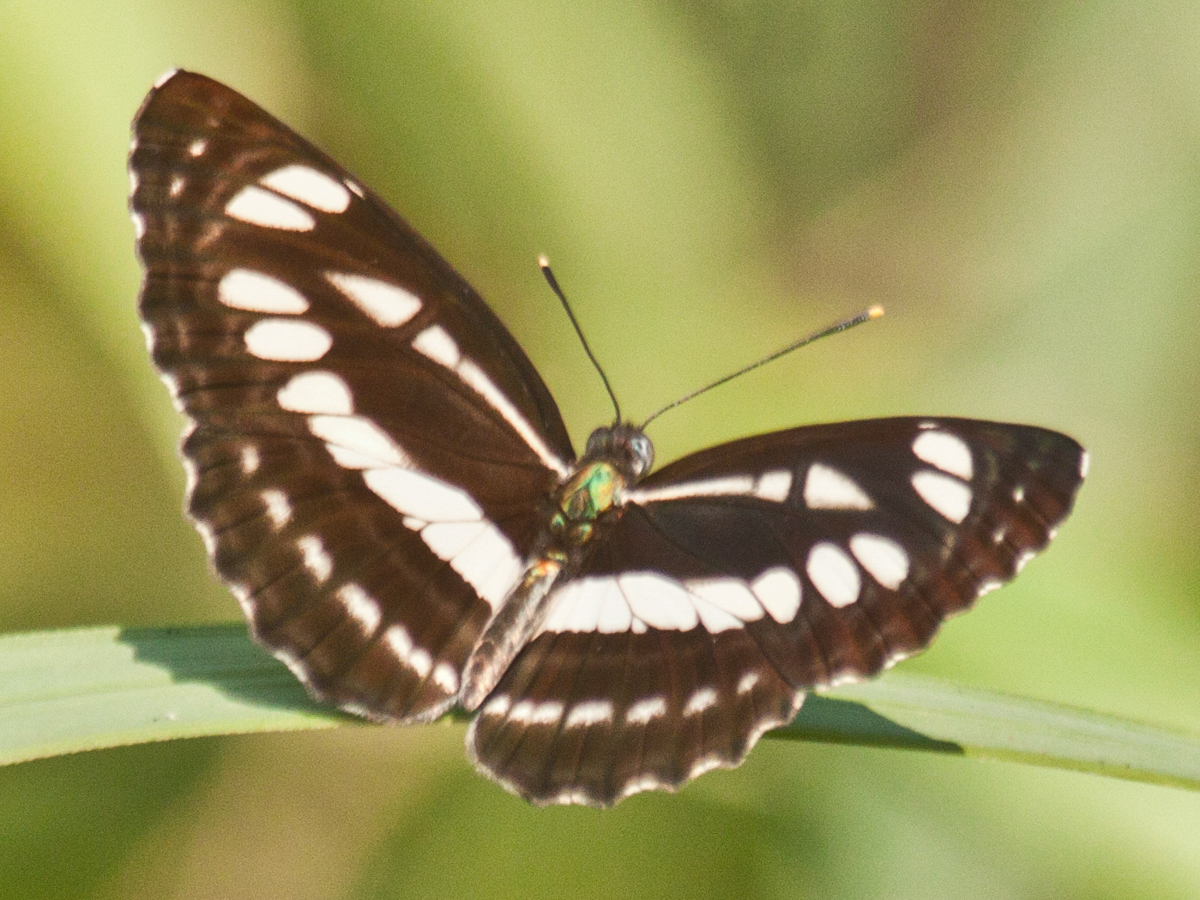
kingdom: Animalia
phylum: Arthropoda
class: Insecta
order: Lepidoptera
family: Nymphalidae
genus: Neptis
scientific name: Neptis hylas
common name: Common sailer
